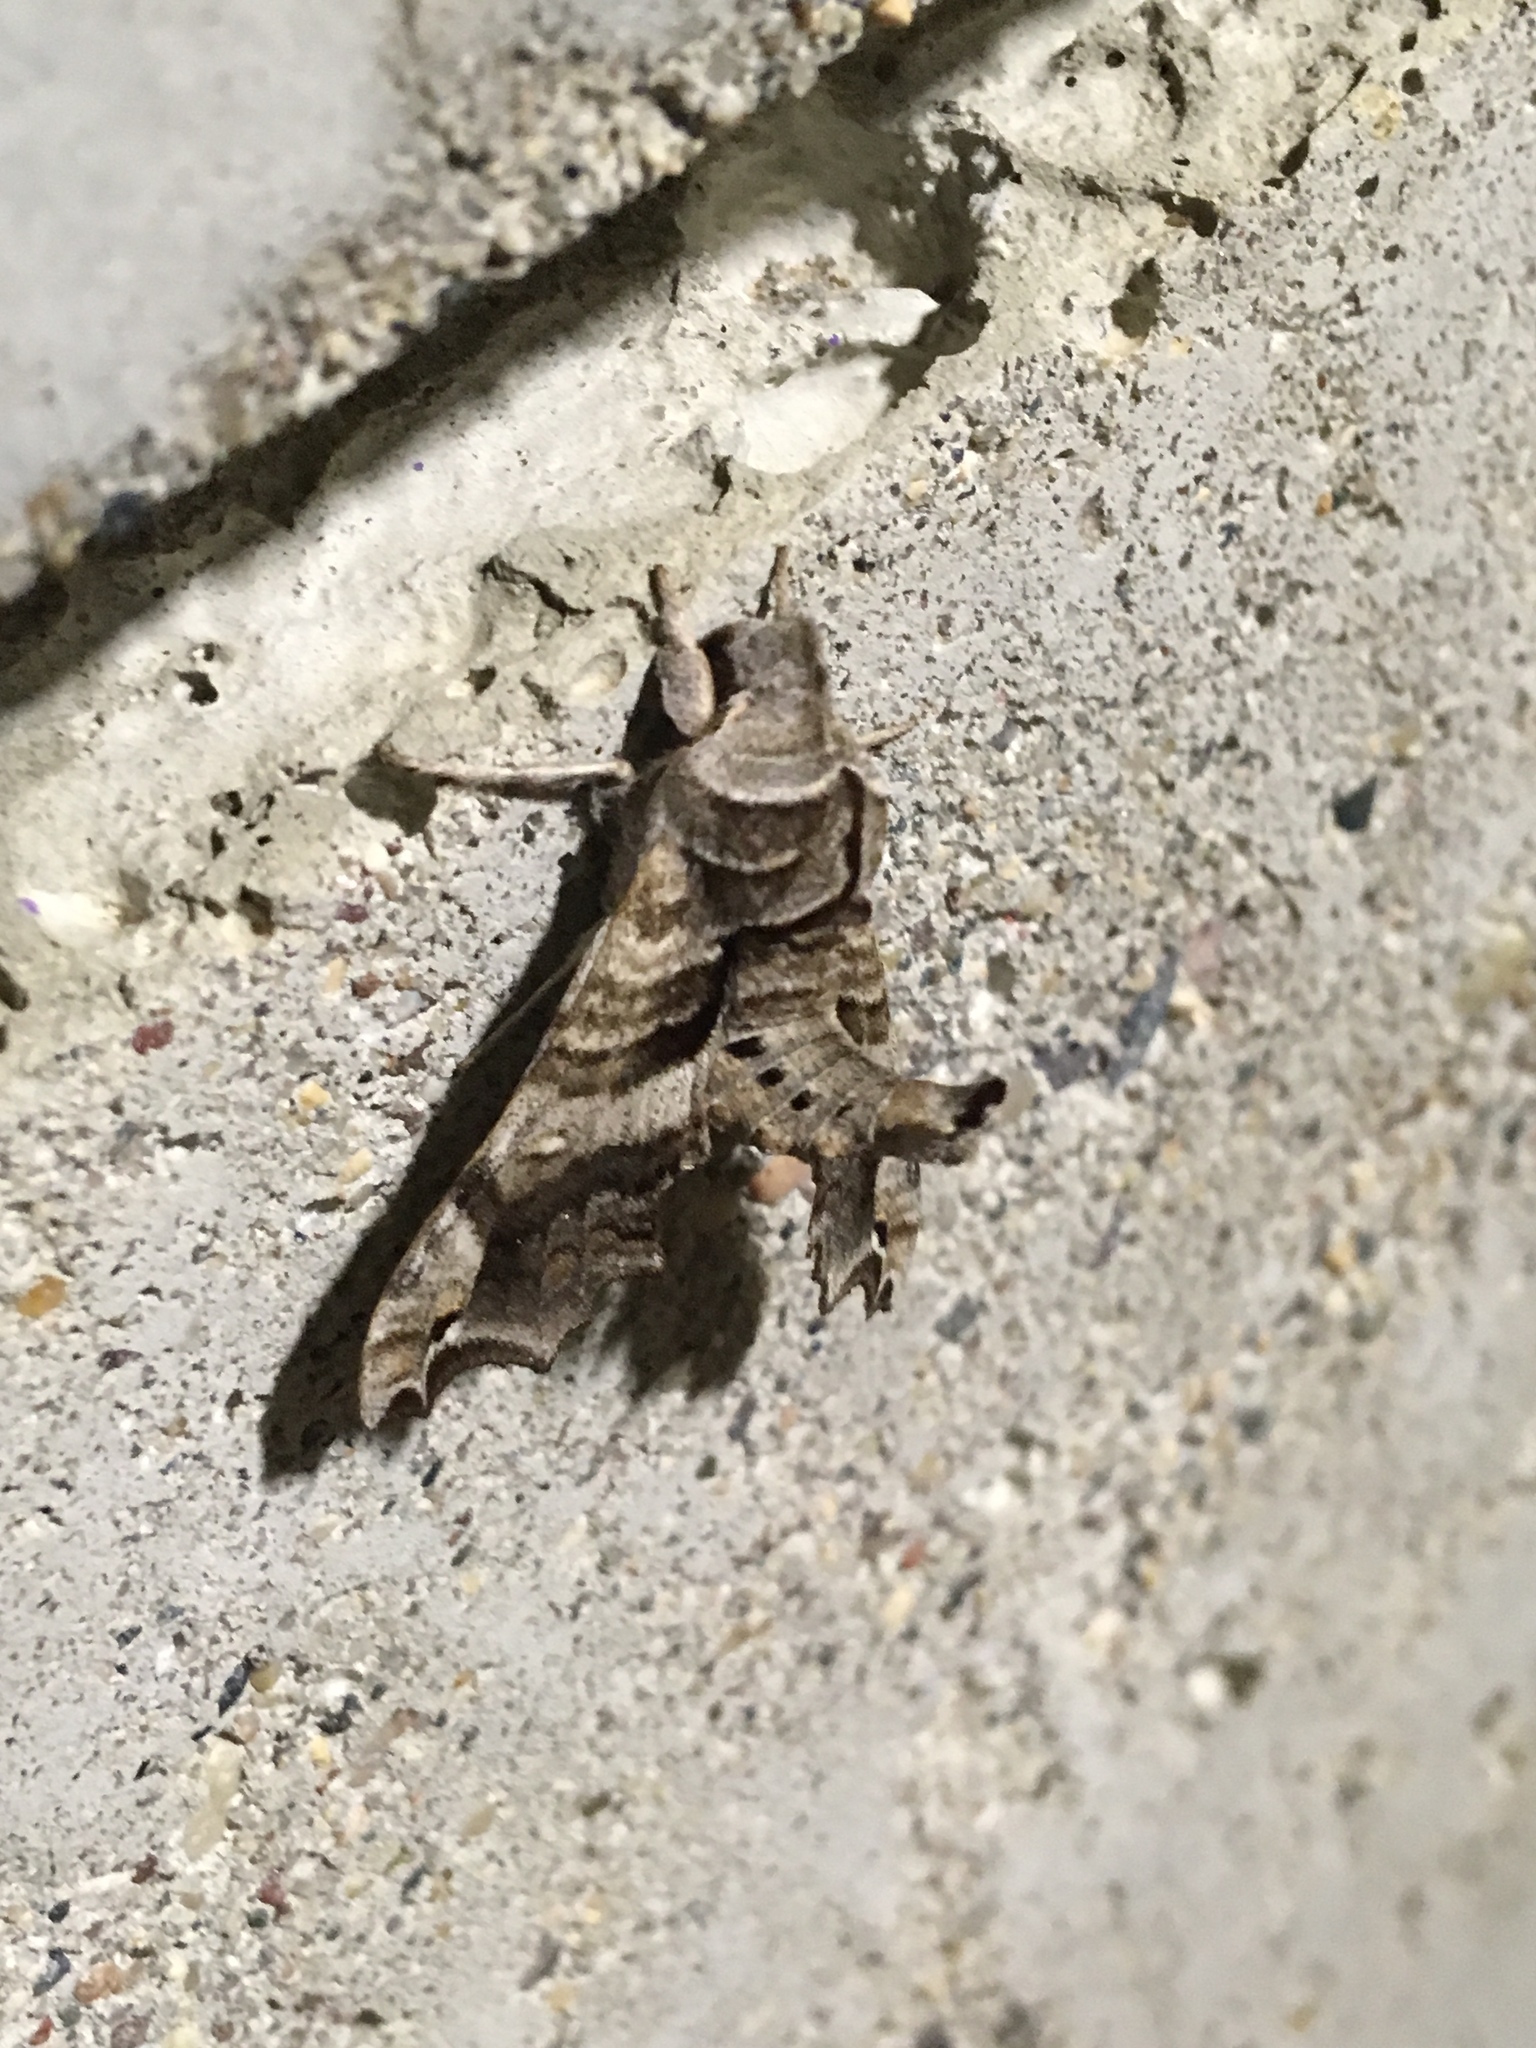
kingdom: Animalia
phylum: Arthropoda
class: Insecta
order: Lepidoptera
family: Sphingidae
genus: Deidamia
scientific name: Deidamia inscriptum
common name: Lettered sphinx
